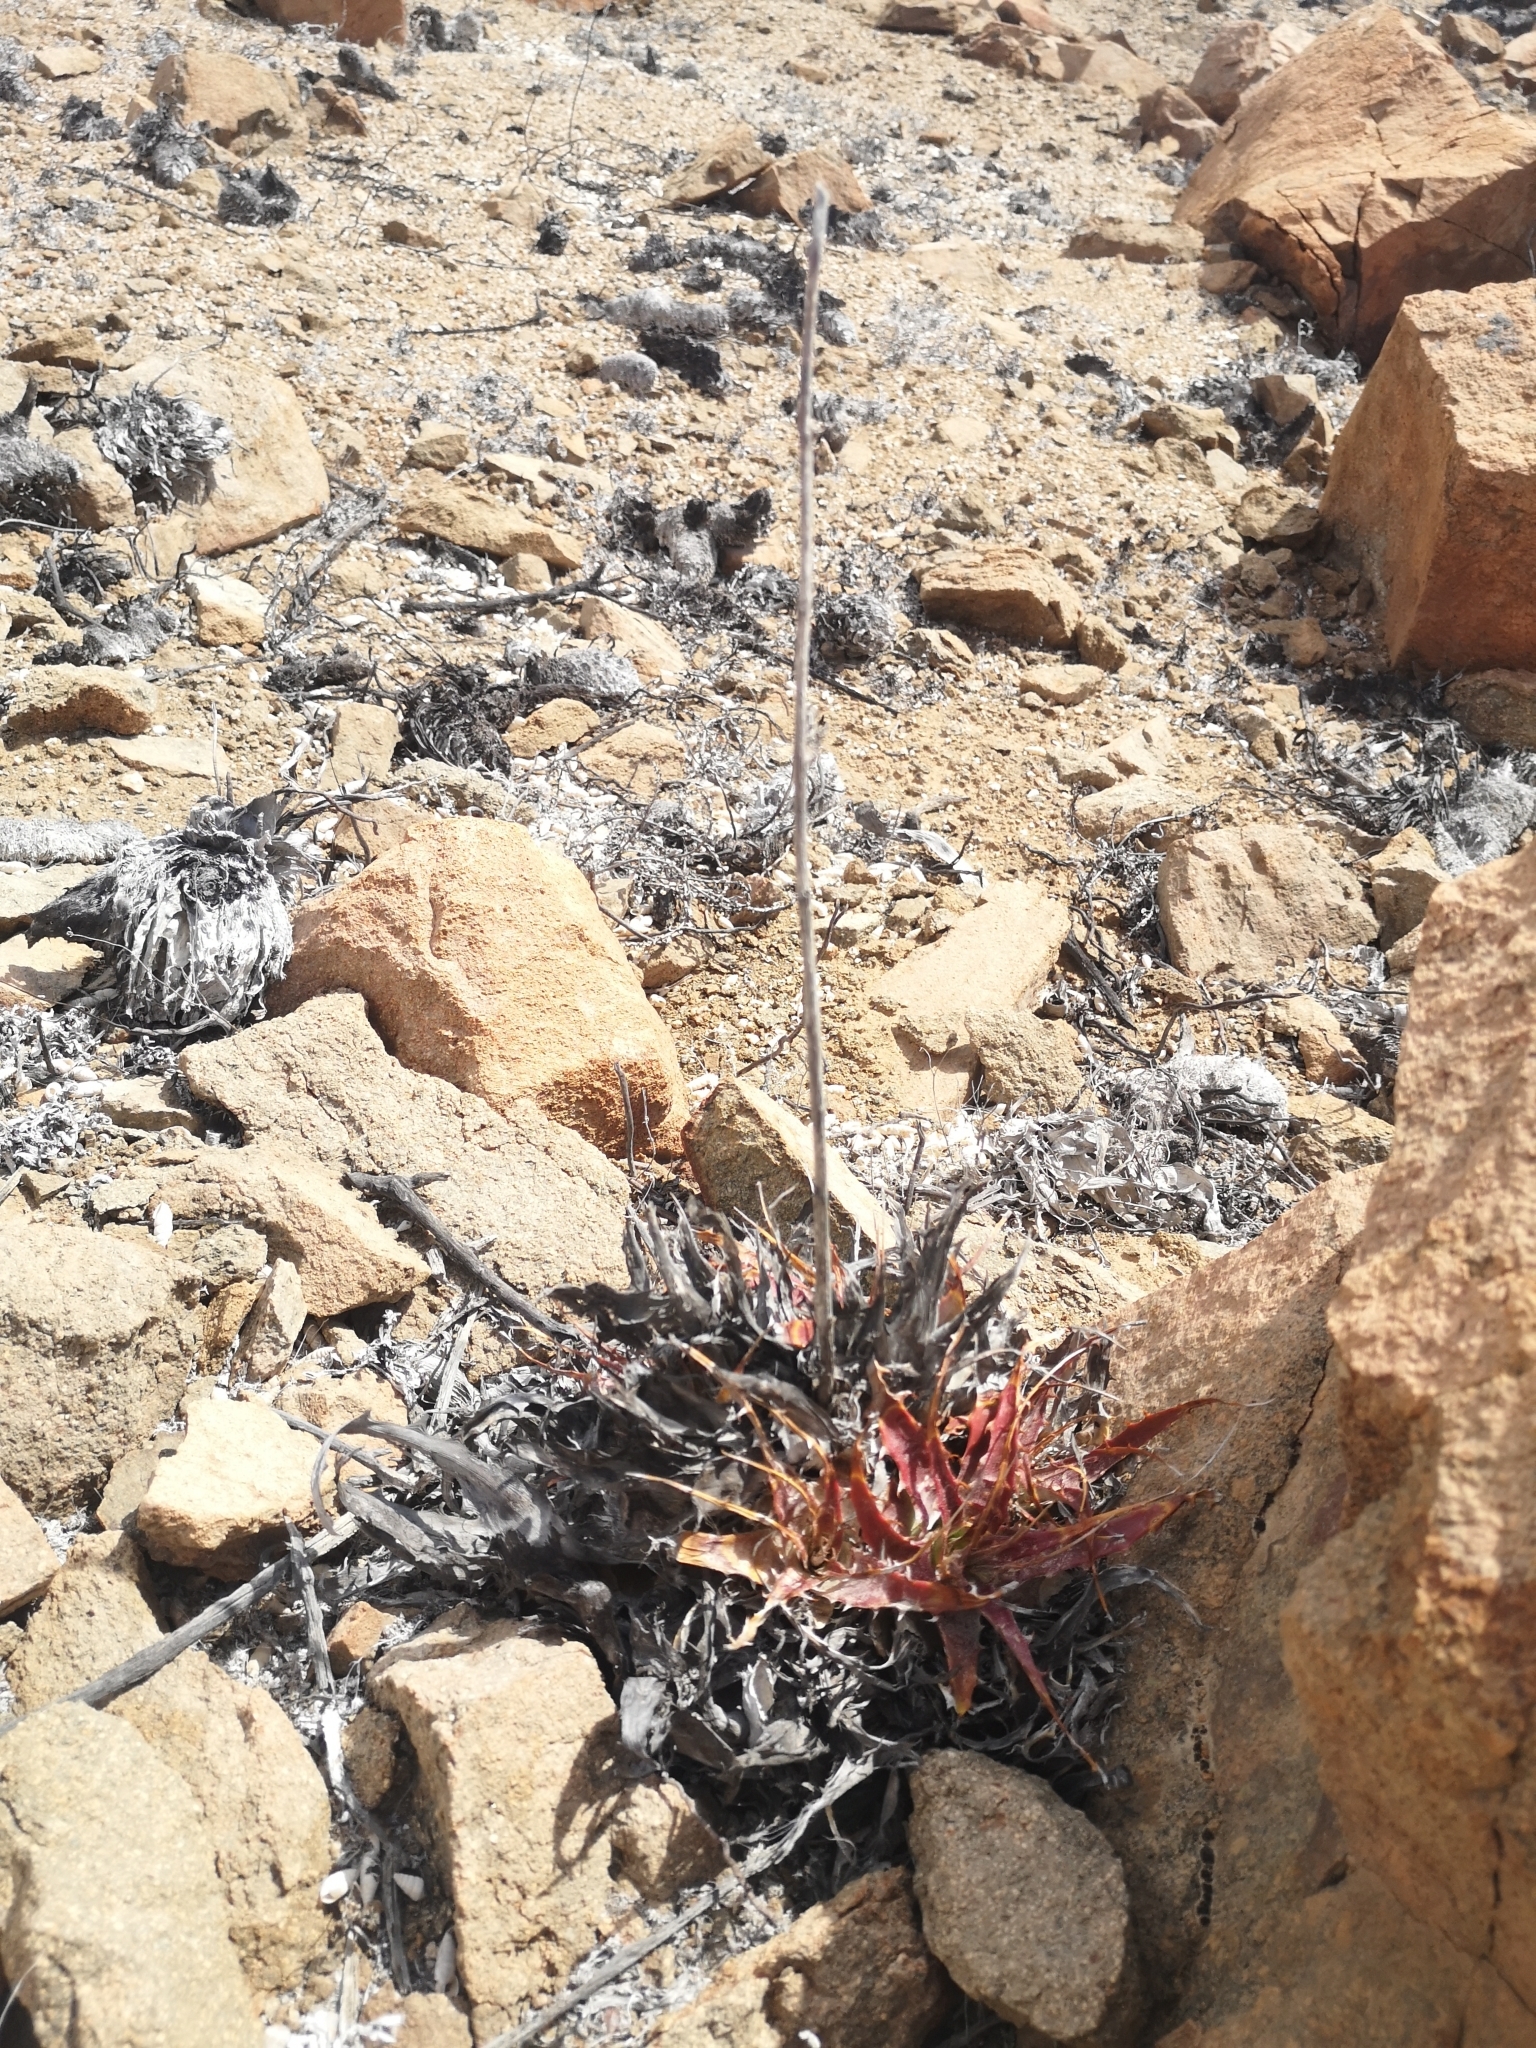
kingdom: Plantae
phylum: Tracheophyta
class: Liliopsida
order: Poales
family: Bromeliaceae
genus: Deuterocohnia
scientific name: Deuterocohnia chrysantha
